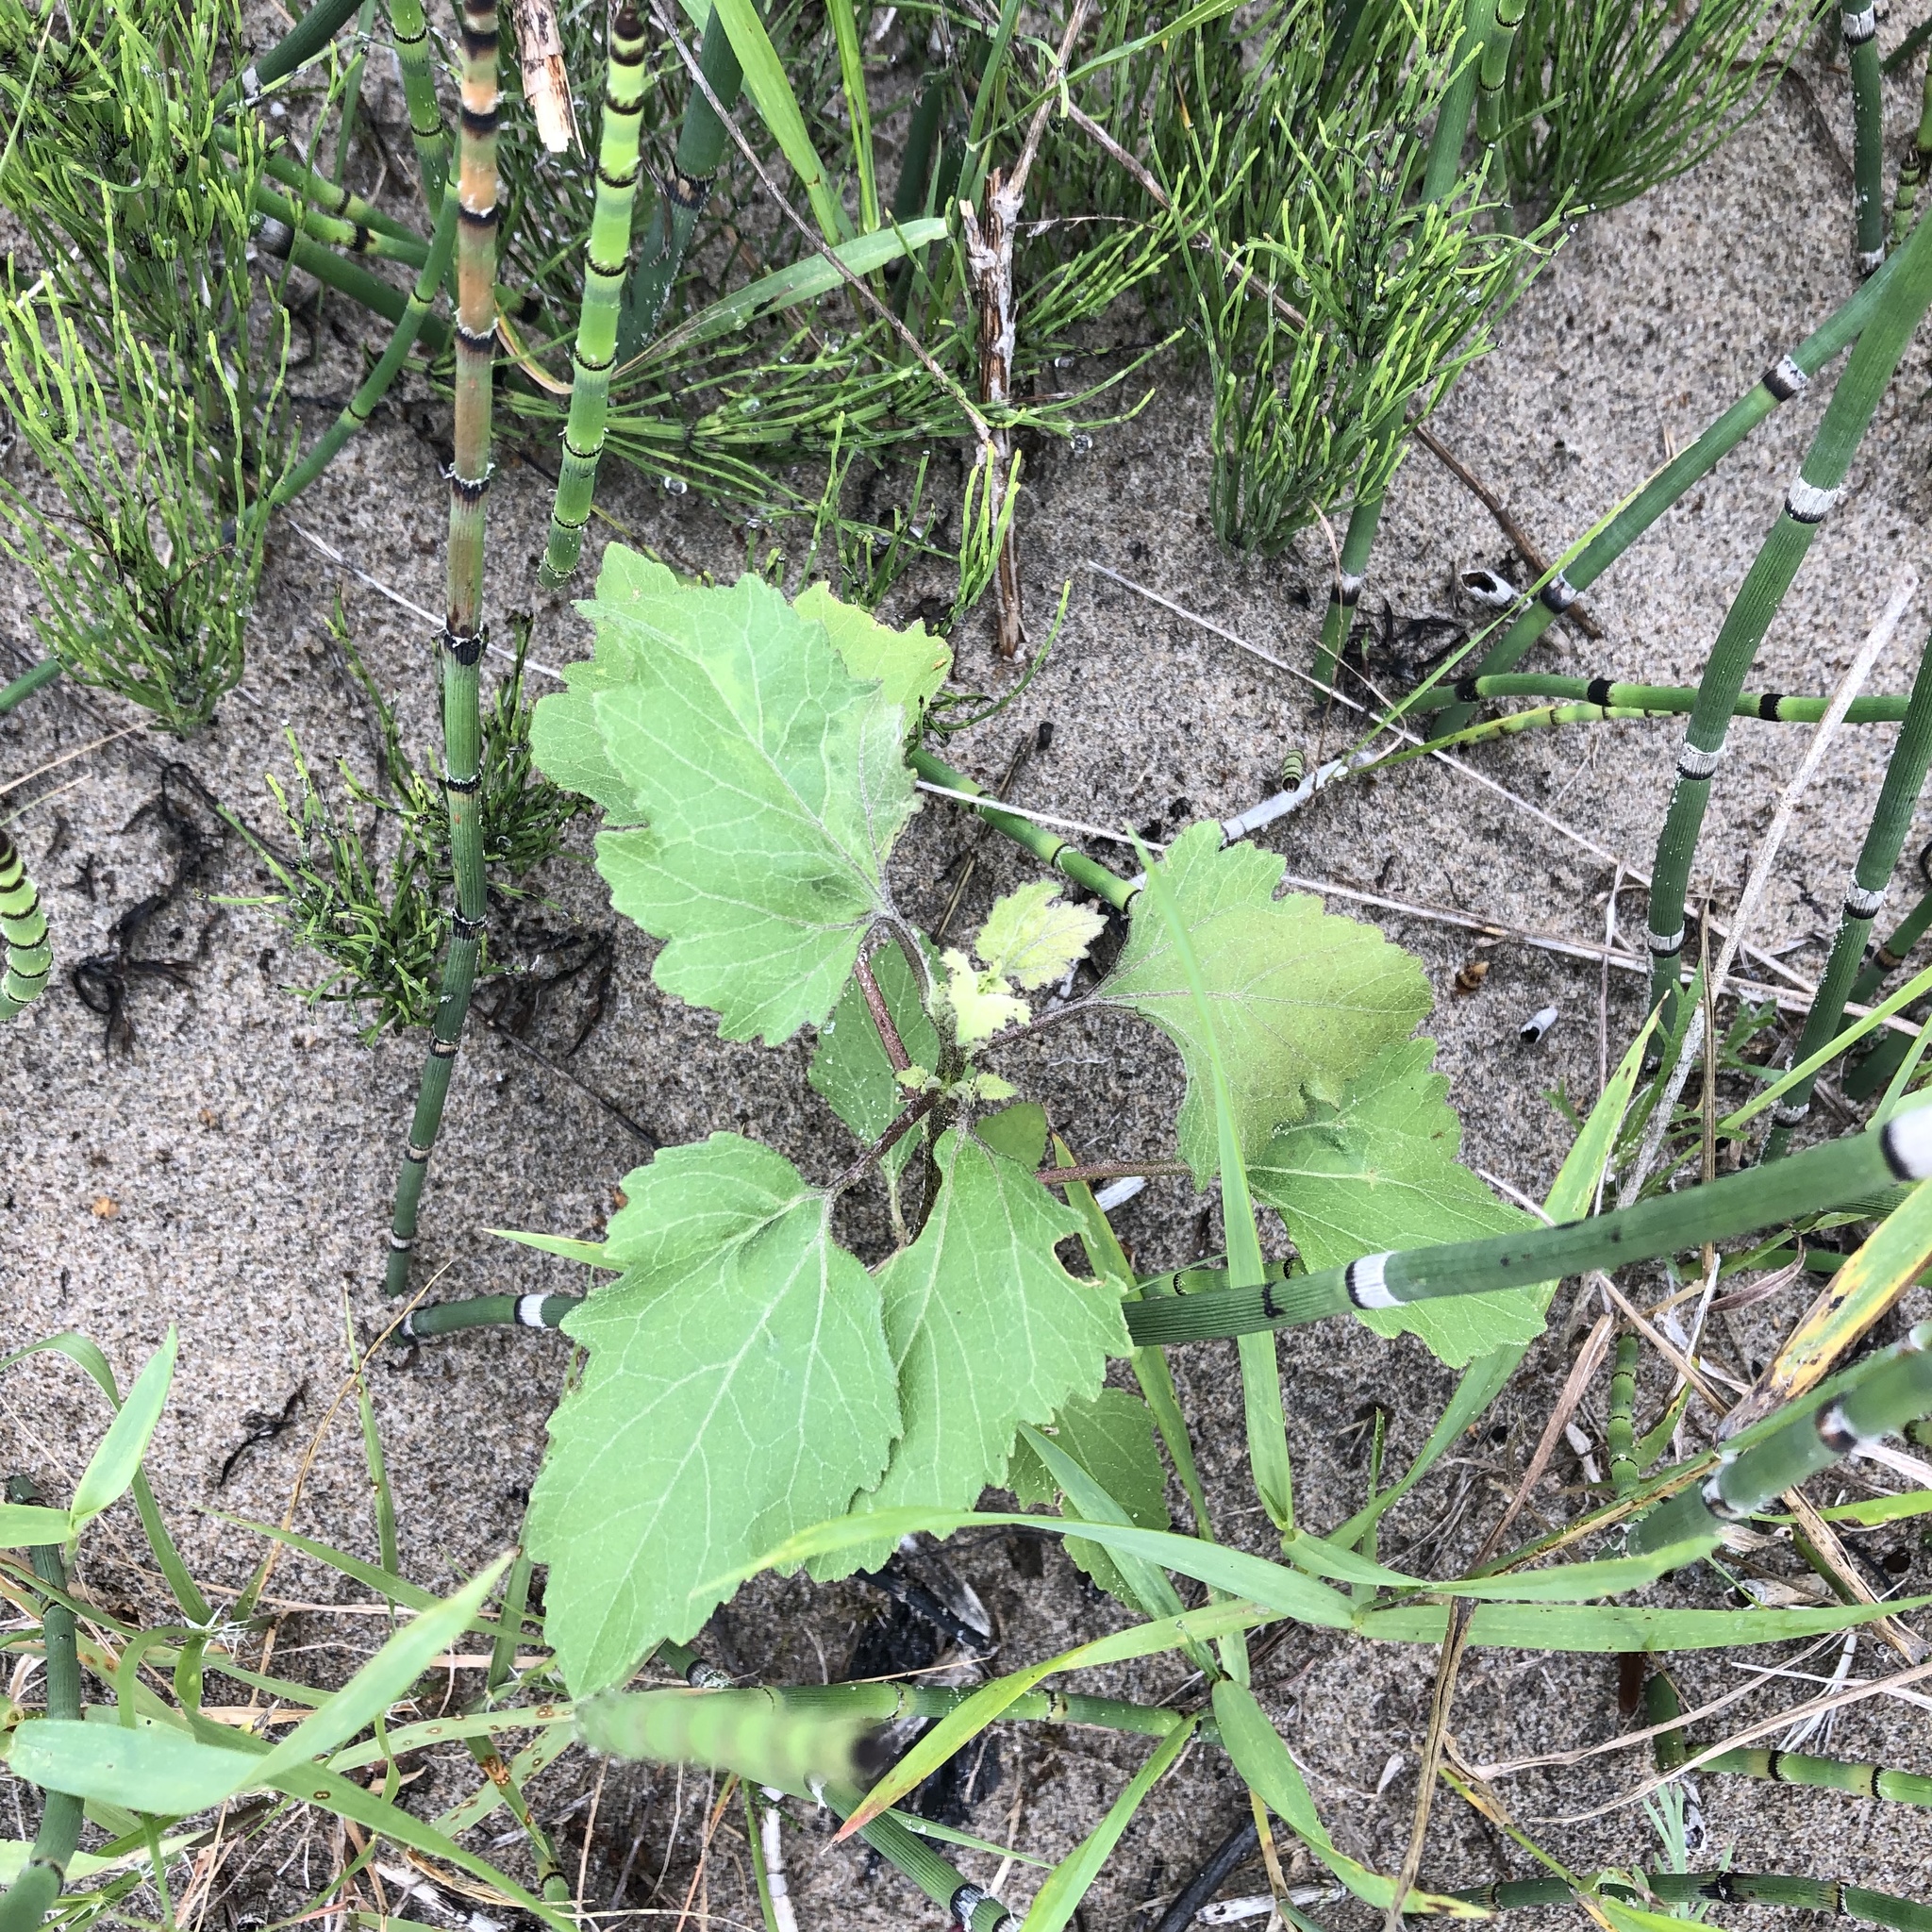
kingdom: Plantae
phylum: Tracheophyta
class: Magnoliopsida
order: Asterales
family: Asteraceae
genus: Xanthium
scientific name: Xanthium strumarium
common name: Rough cocklebur
